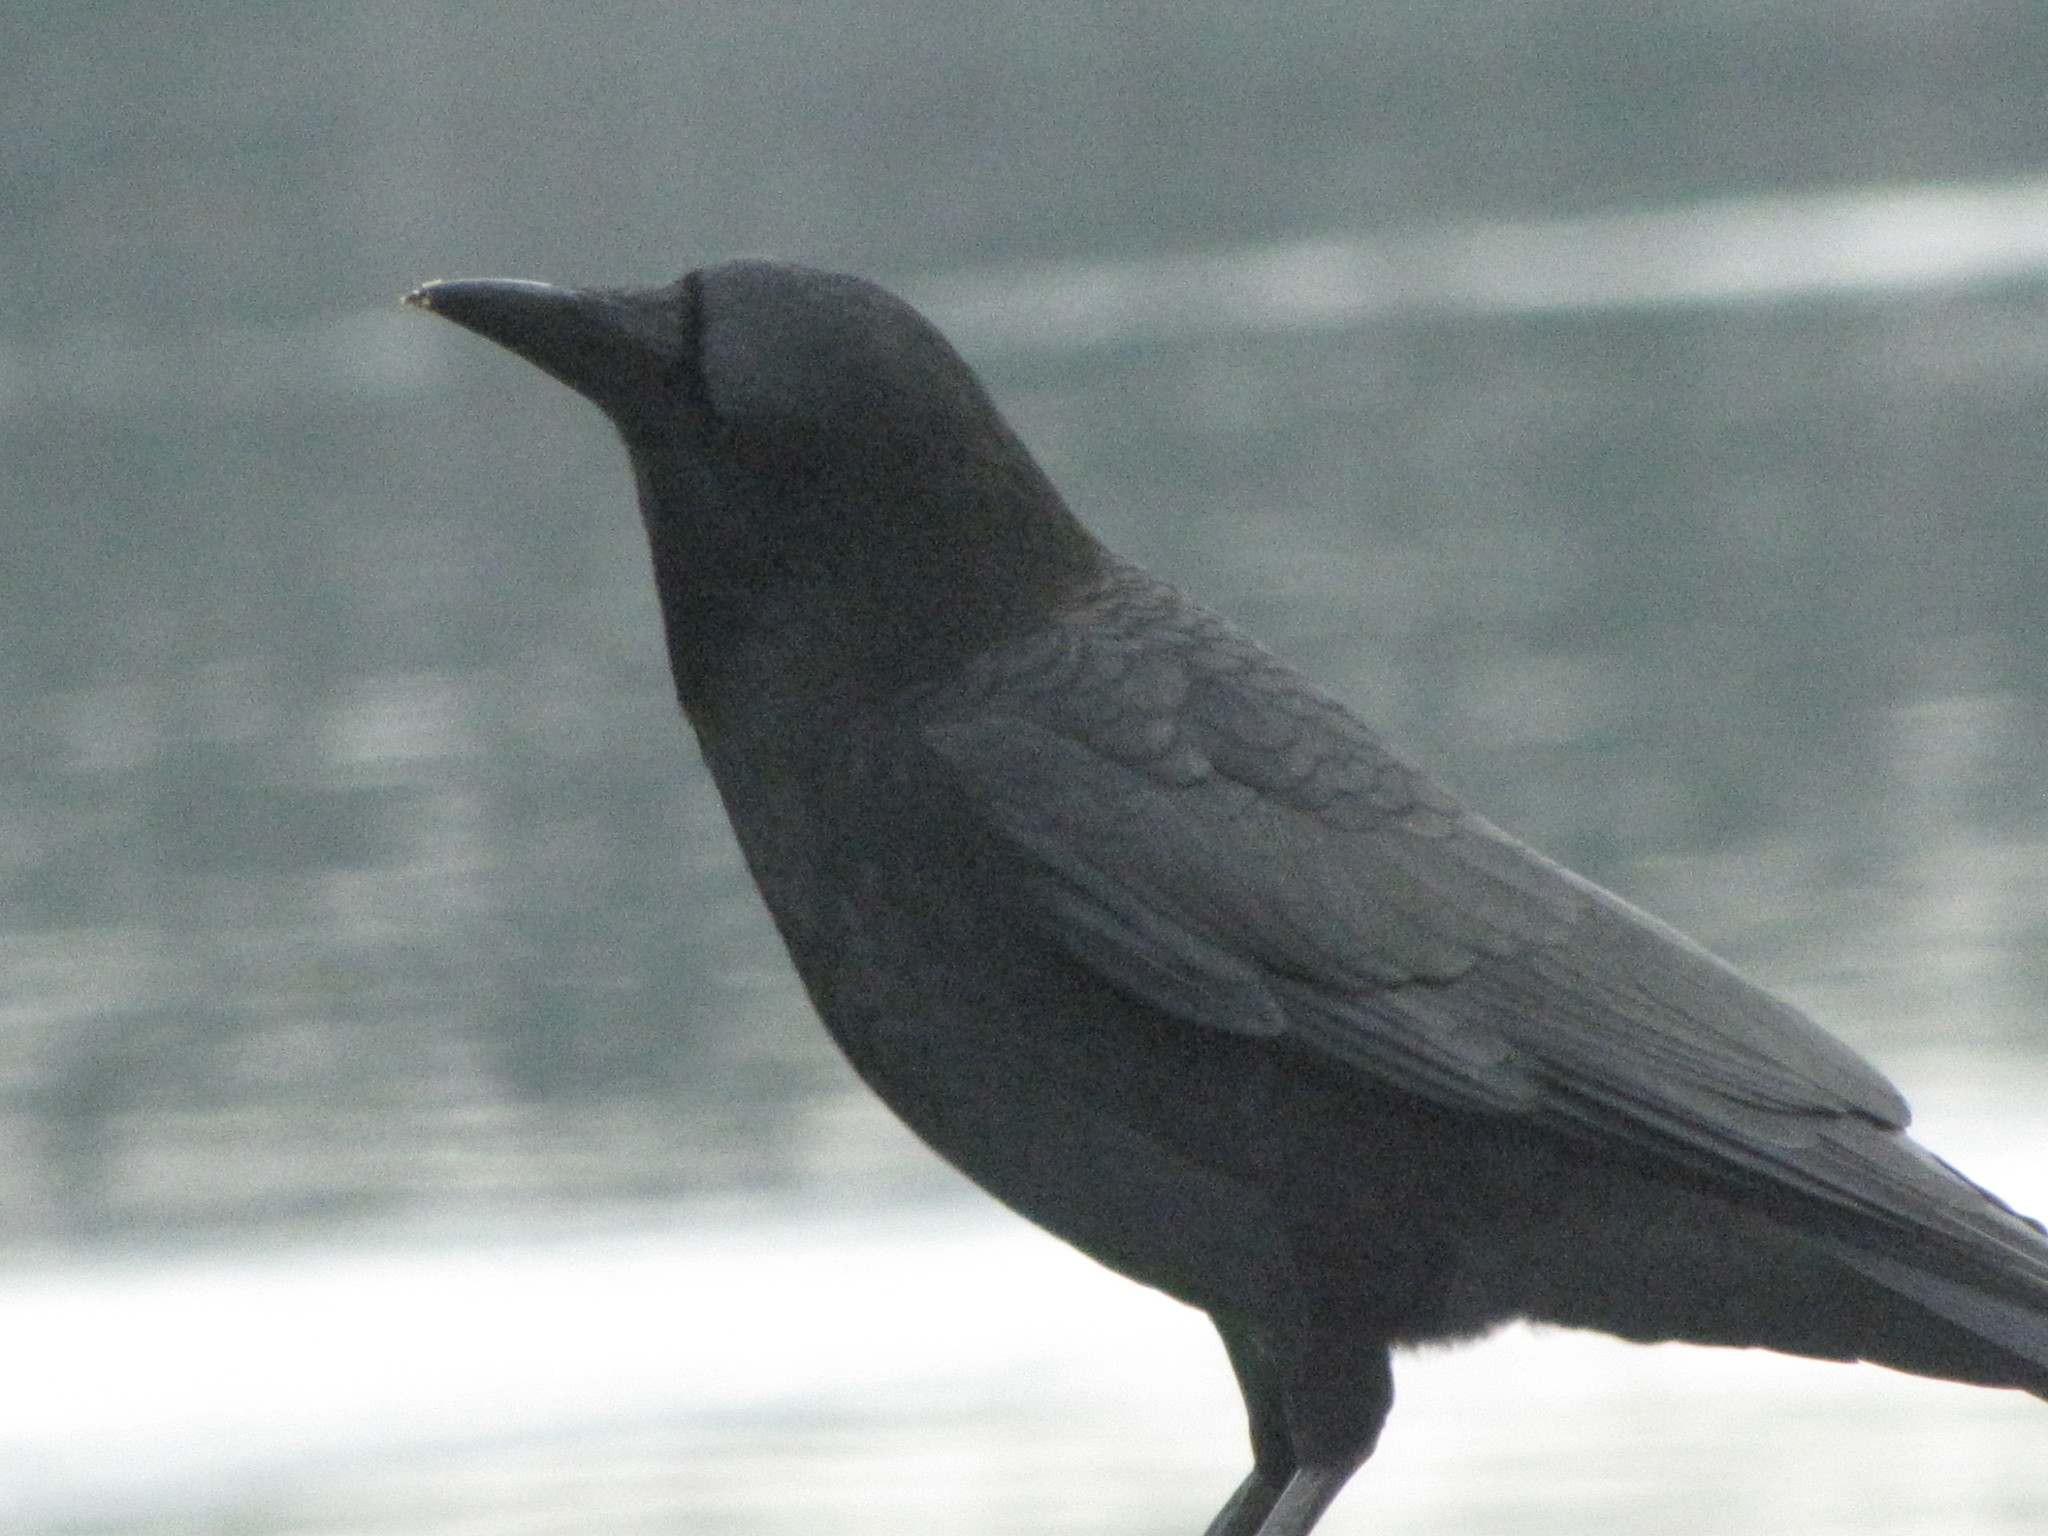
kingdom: Animalia
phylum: Chordata
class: Aves
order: Passeriformes
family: Corvidae
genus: Corvus
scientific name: Corvus brachyrhynchos
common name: American crow
